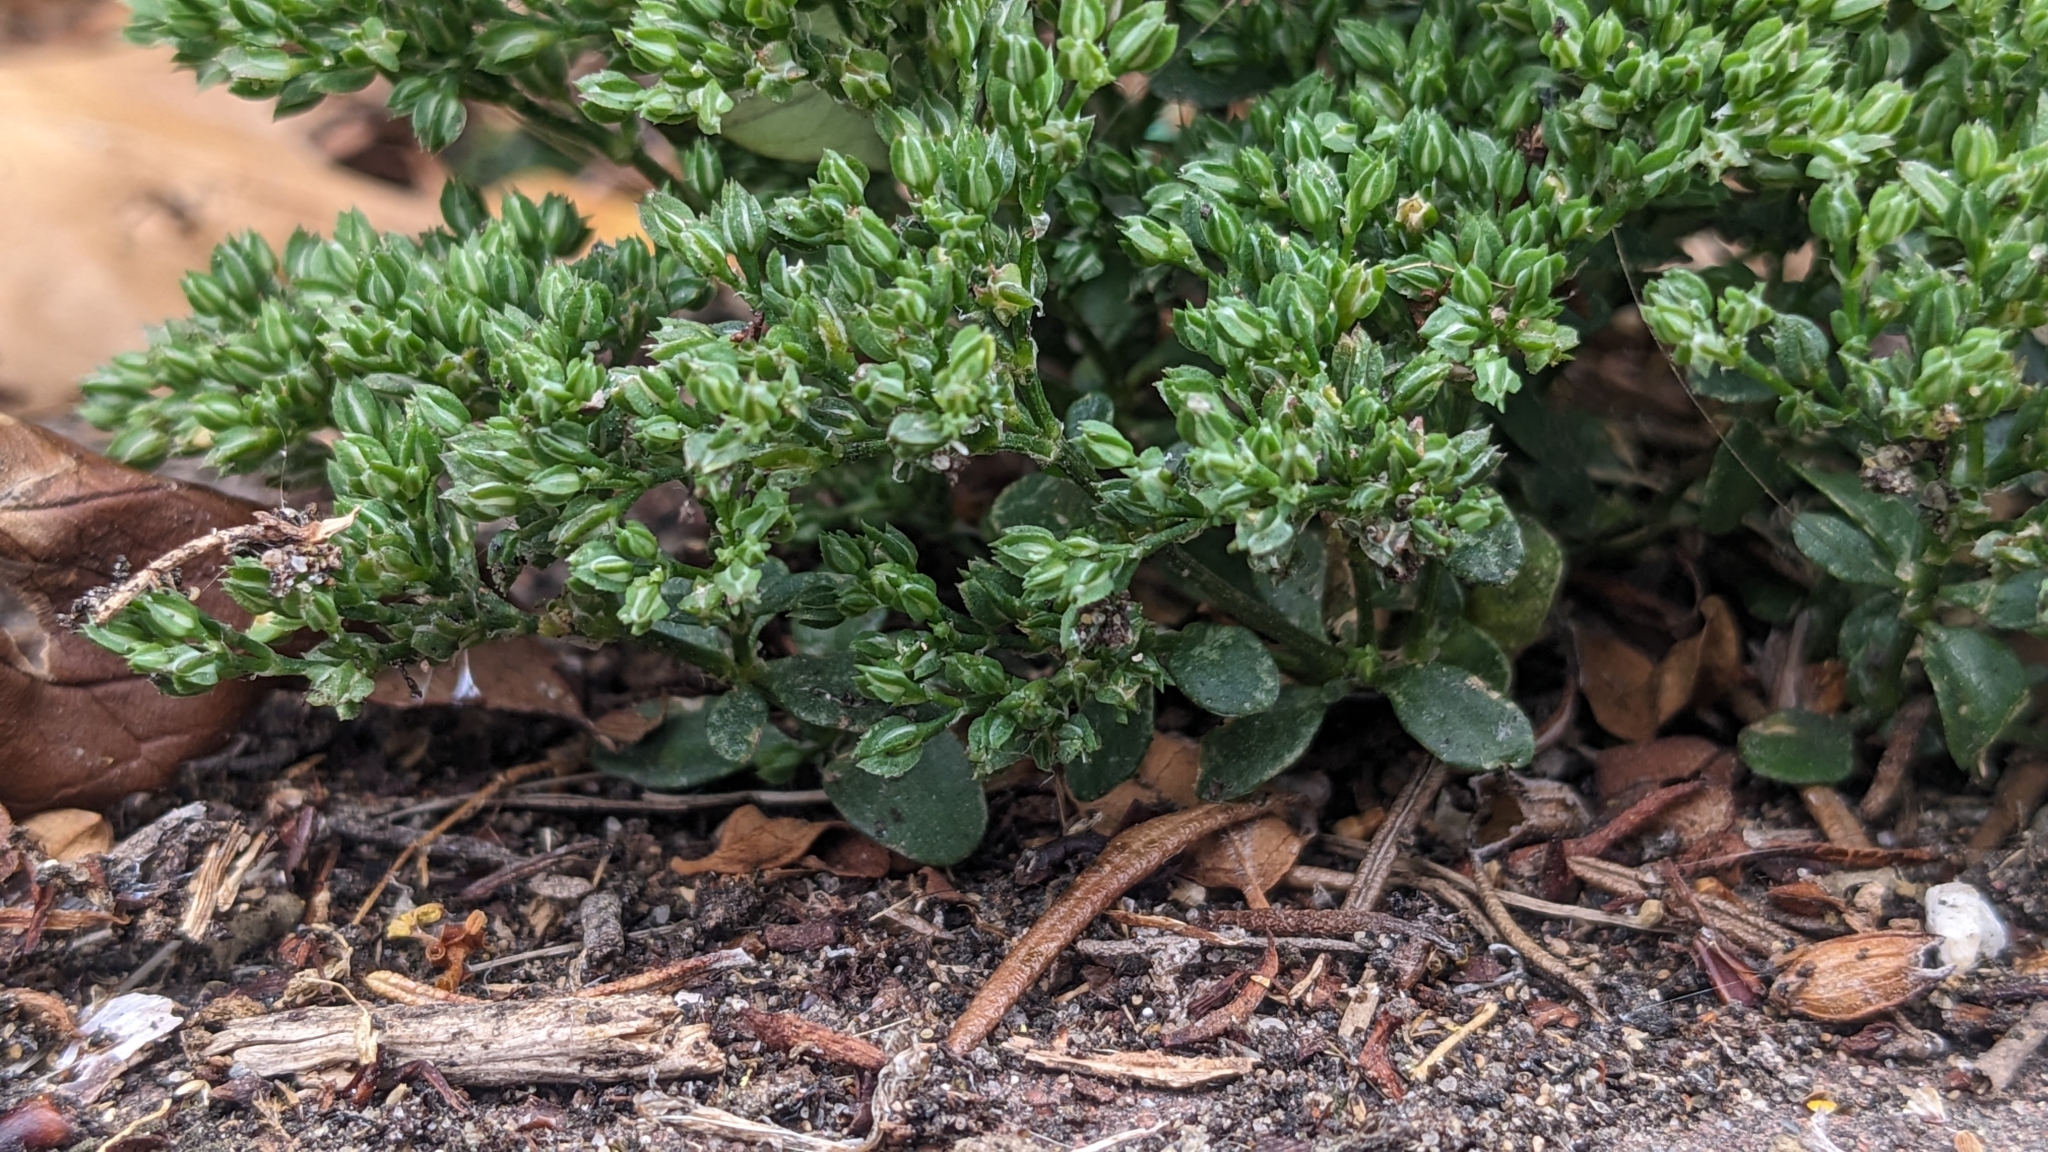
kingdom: Plantae
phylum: Tracheophyta
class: Magnoliopsida
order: Caryophyllales
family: Caryophyllaceae
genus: Polycarpon
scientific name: Polycarpon tetraphyllum
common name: Four-leaved all-seed
